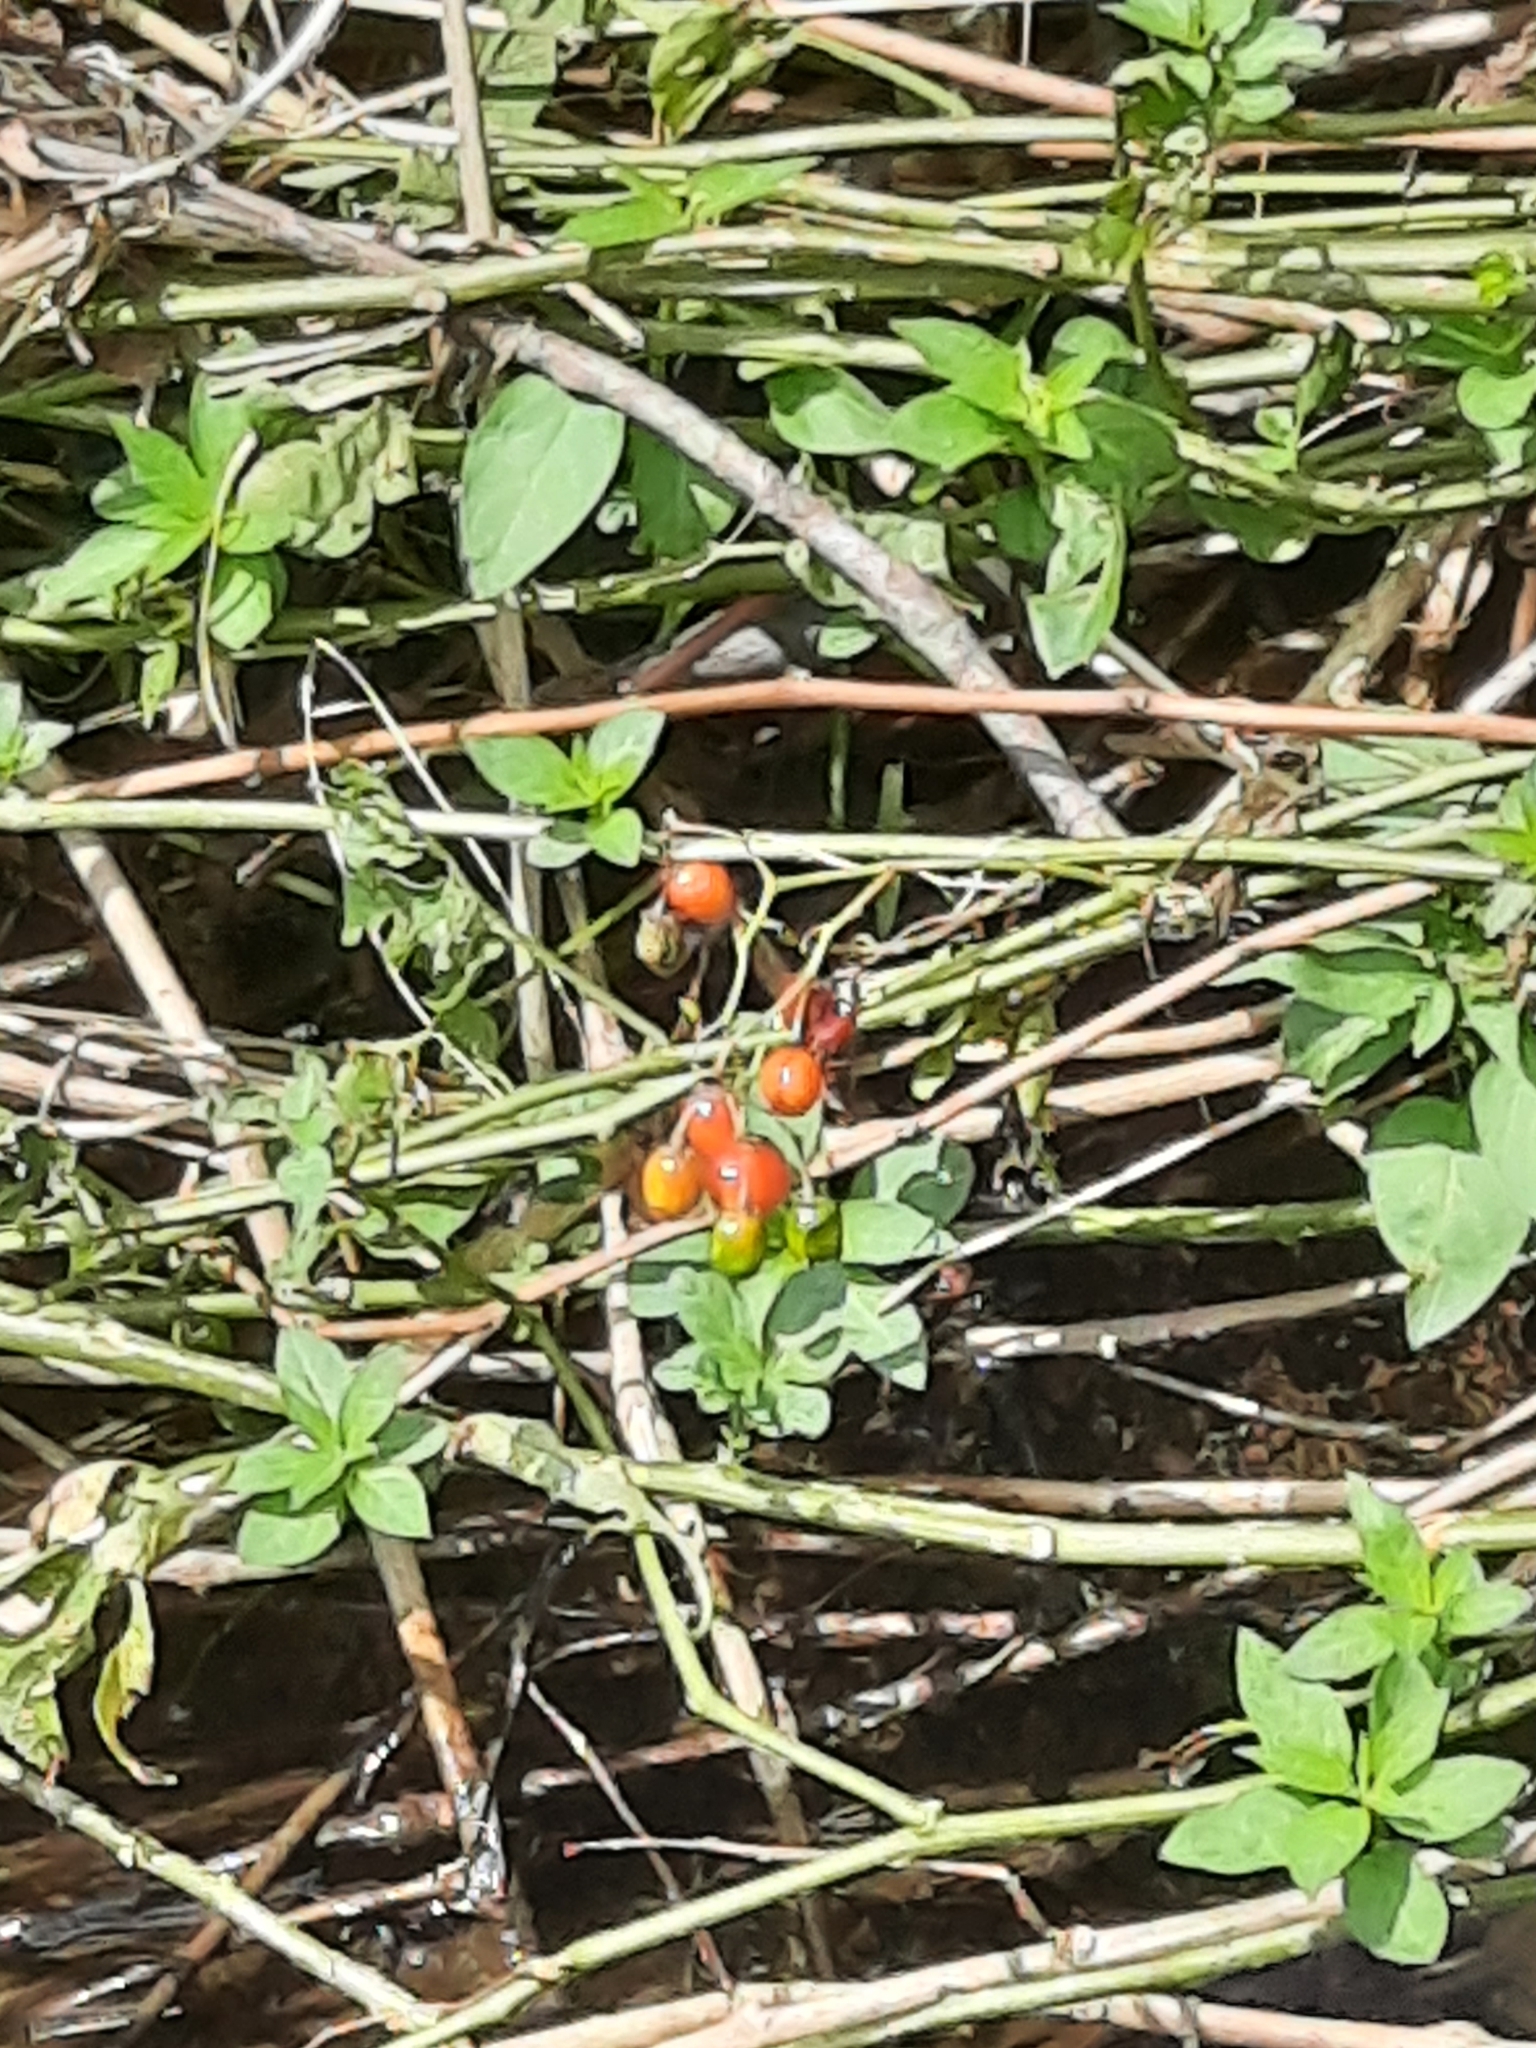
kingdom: Plantae
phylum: Tracheophyta
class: Magnoliopsida
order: Solanales
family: Solanaceae
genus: Solanum
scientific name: Solanum dulcamara
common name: Climbing nightshade
